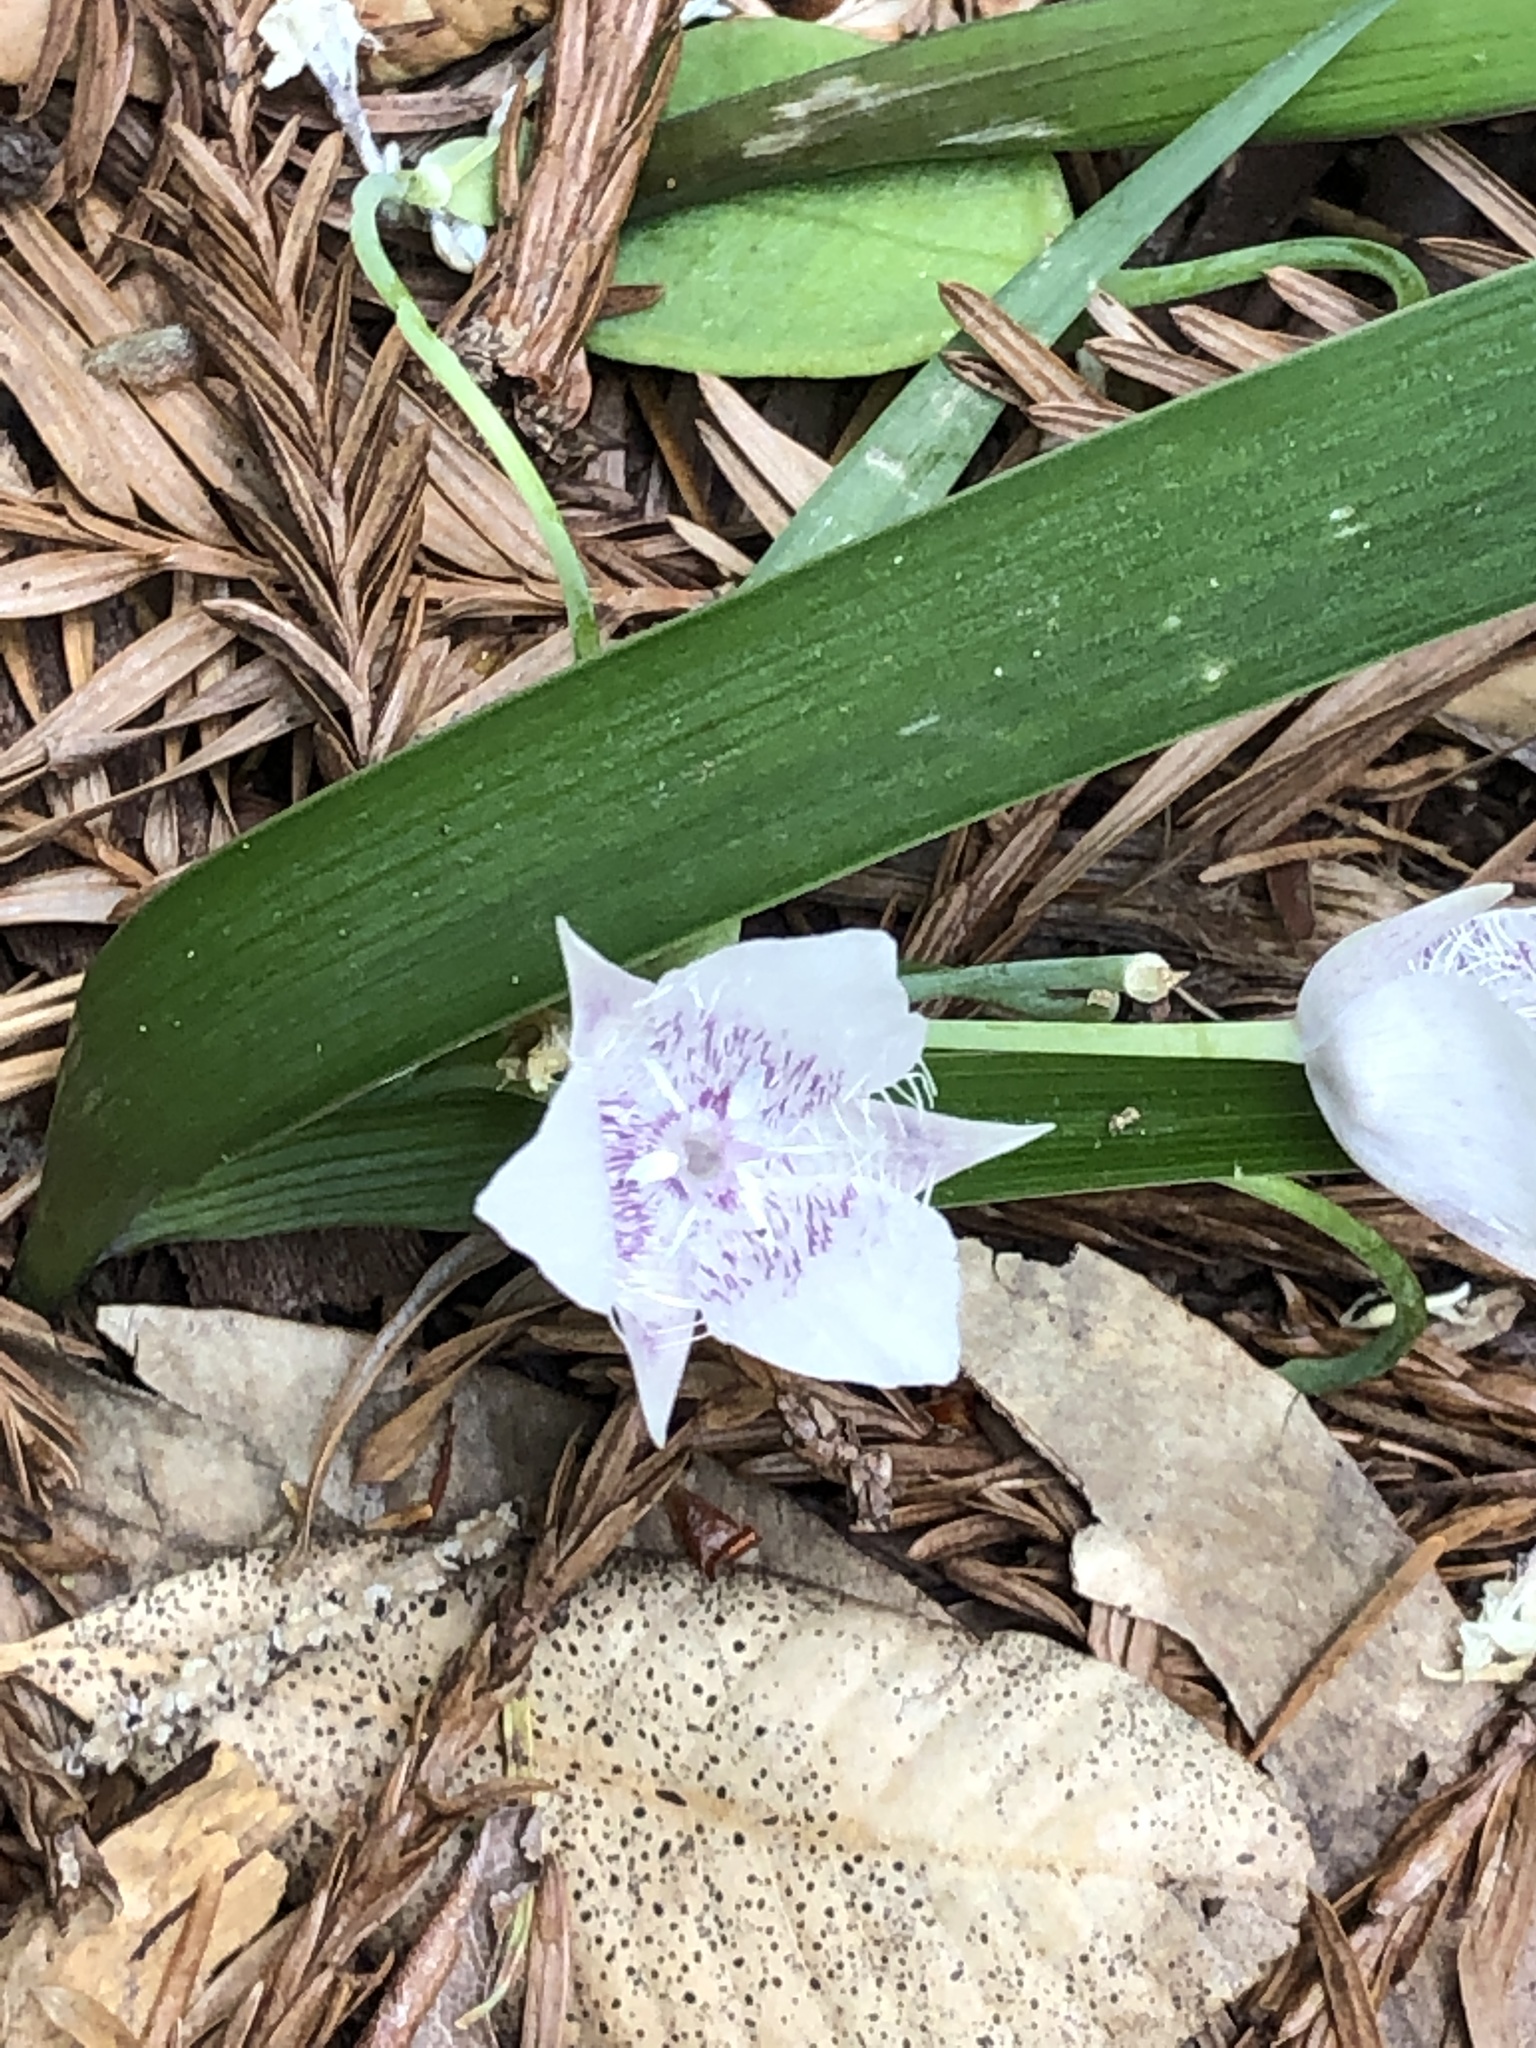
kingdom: Plantae
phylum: Tracheophyta
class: Liliopsida
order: Liliales
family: Liliaceae
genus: Calochortus
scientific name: Calochortus tolmiei
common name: Pussy-ears
